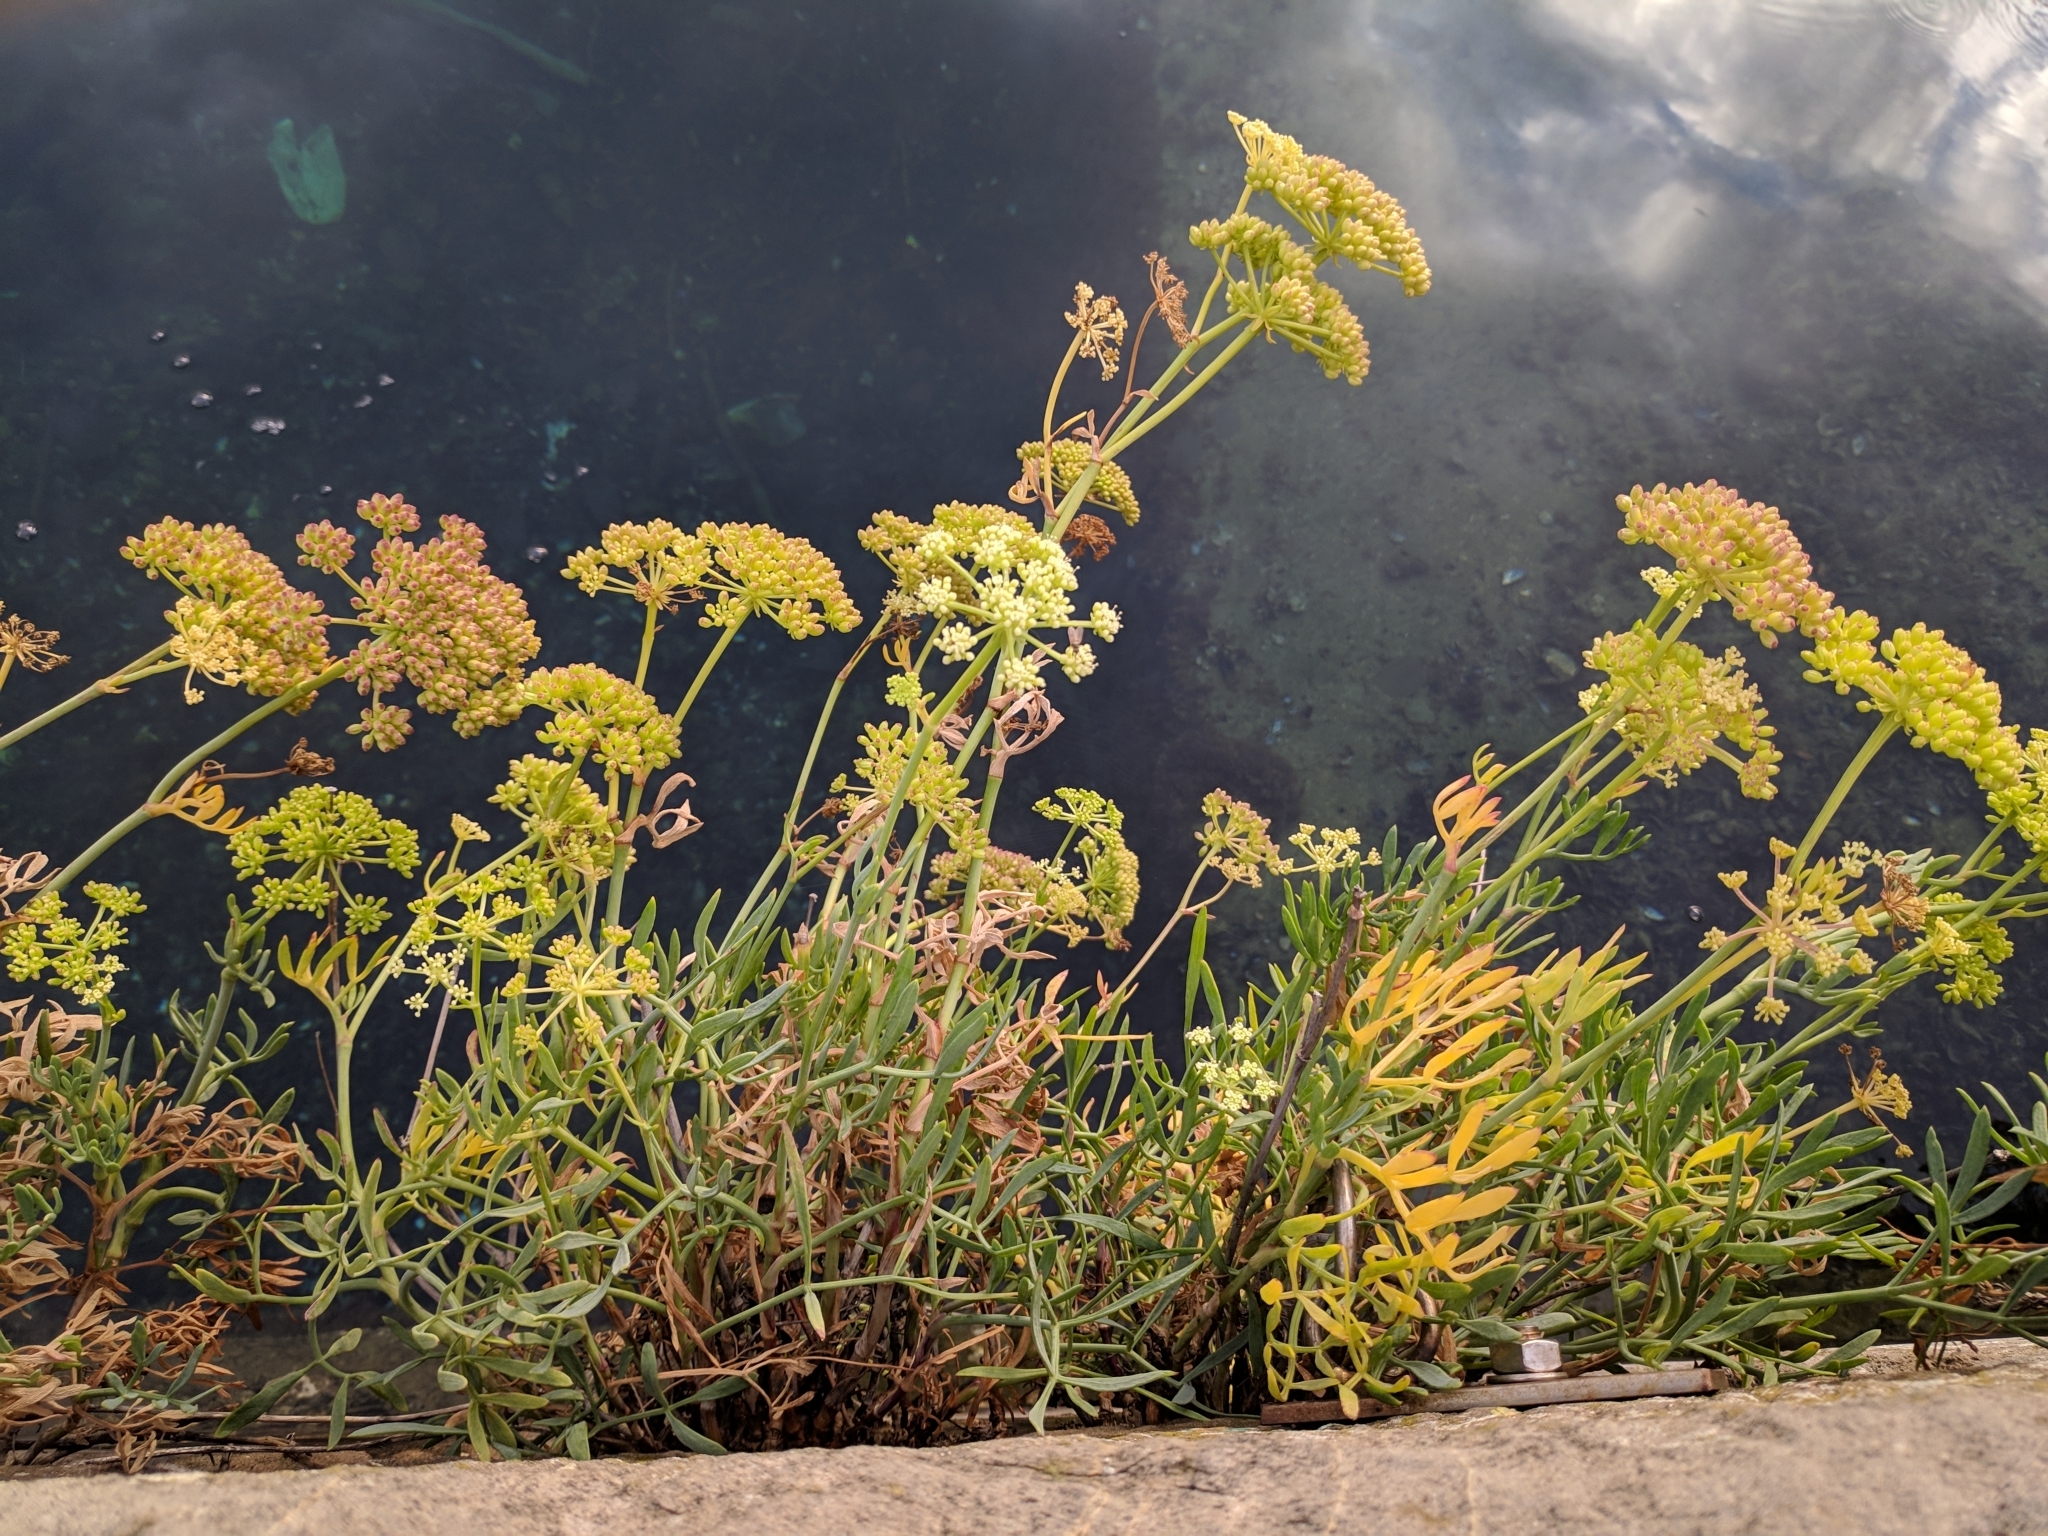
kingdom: Plantae
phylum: Tracheophyta
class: Magnoliopsida
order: Apiales
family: Apiaceae
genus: Crithmum
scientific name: Crithmum maritimum
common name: Rock samphire
